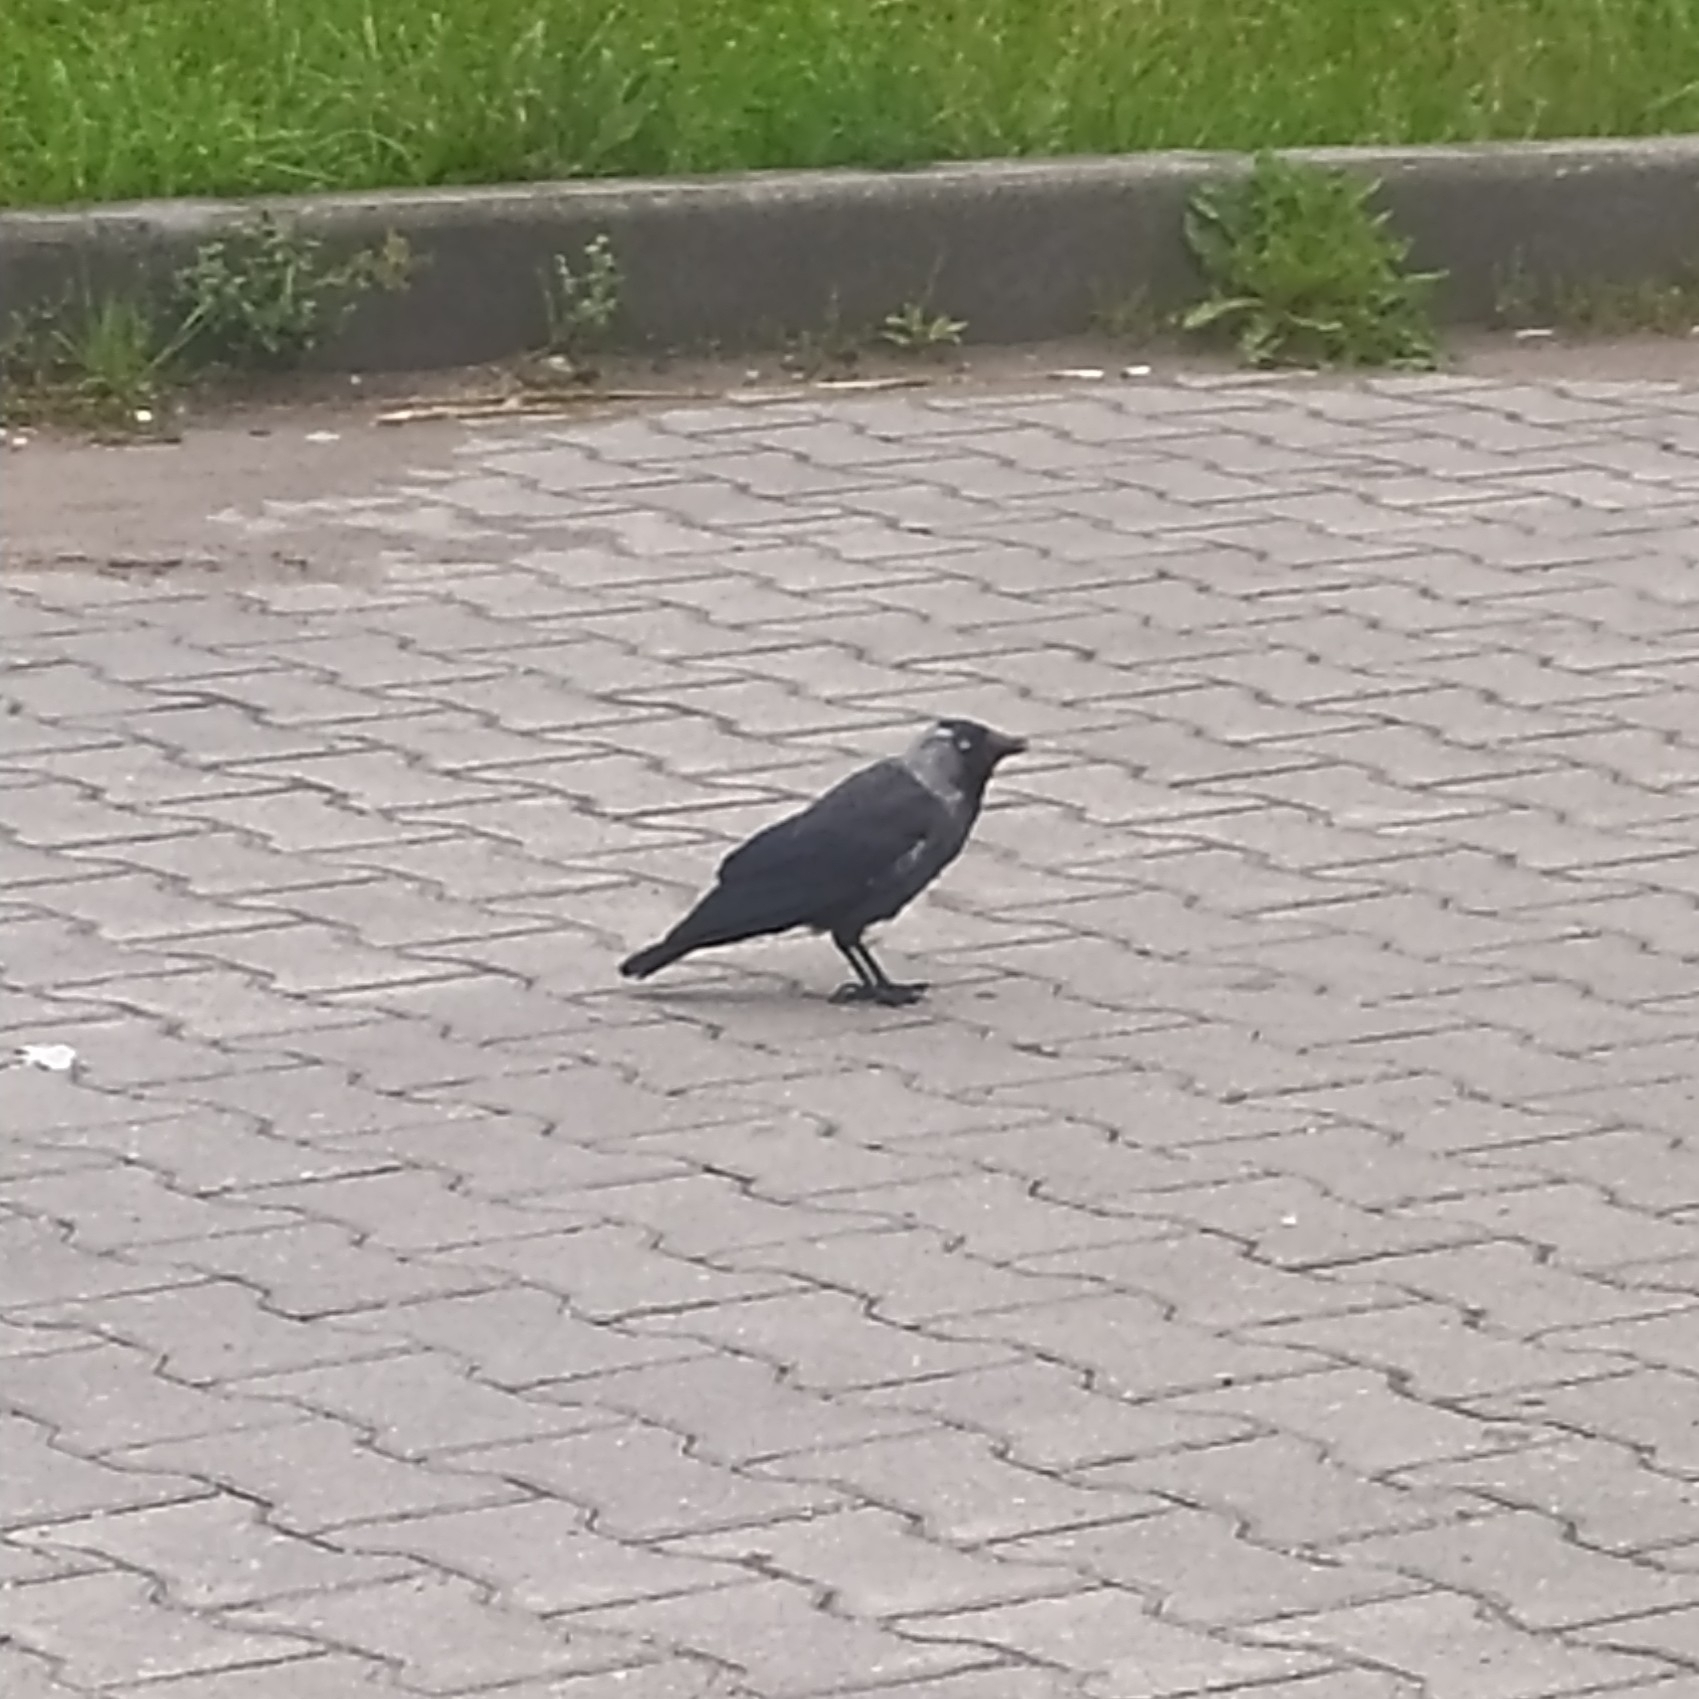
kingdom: Animalia
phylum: Chordata
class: Aves
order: Passeriformes
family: Corvidae
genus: Coloeus
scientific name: Coloeus monedula
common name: Western jackdaw
